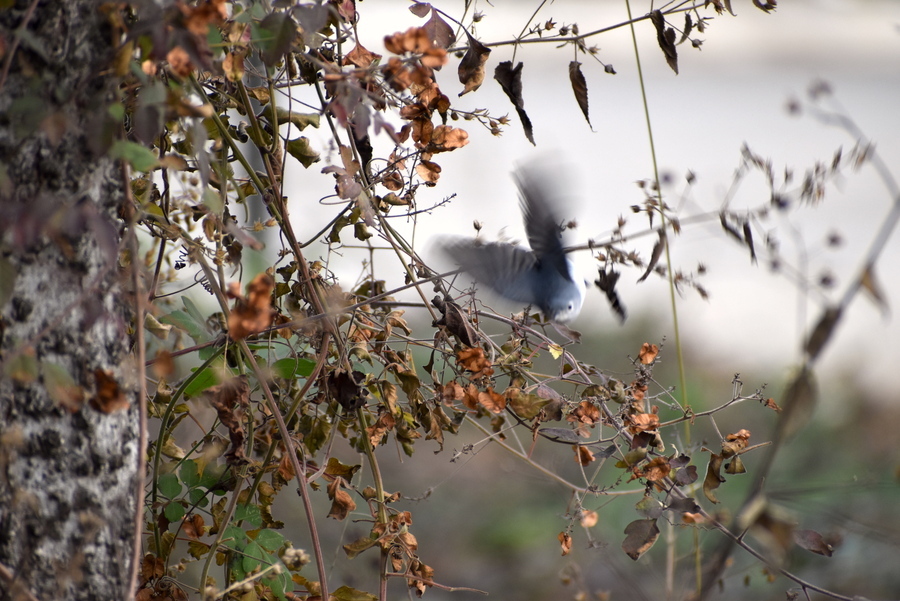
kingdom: Animalia
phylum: Chordata
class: Aves
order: Passeriformes
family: Polioptilidae
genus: Polioptila
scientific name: Polioptila caerulea
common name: Blue-gray gnatcatcher
